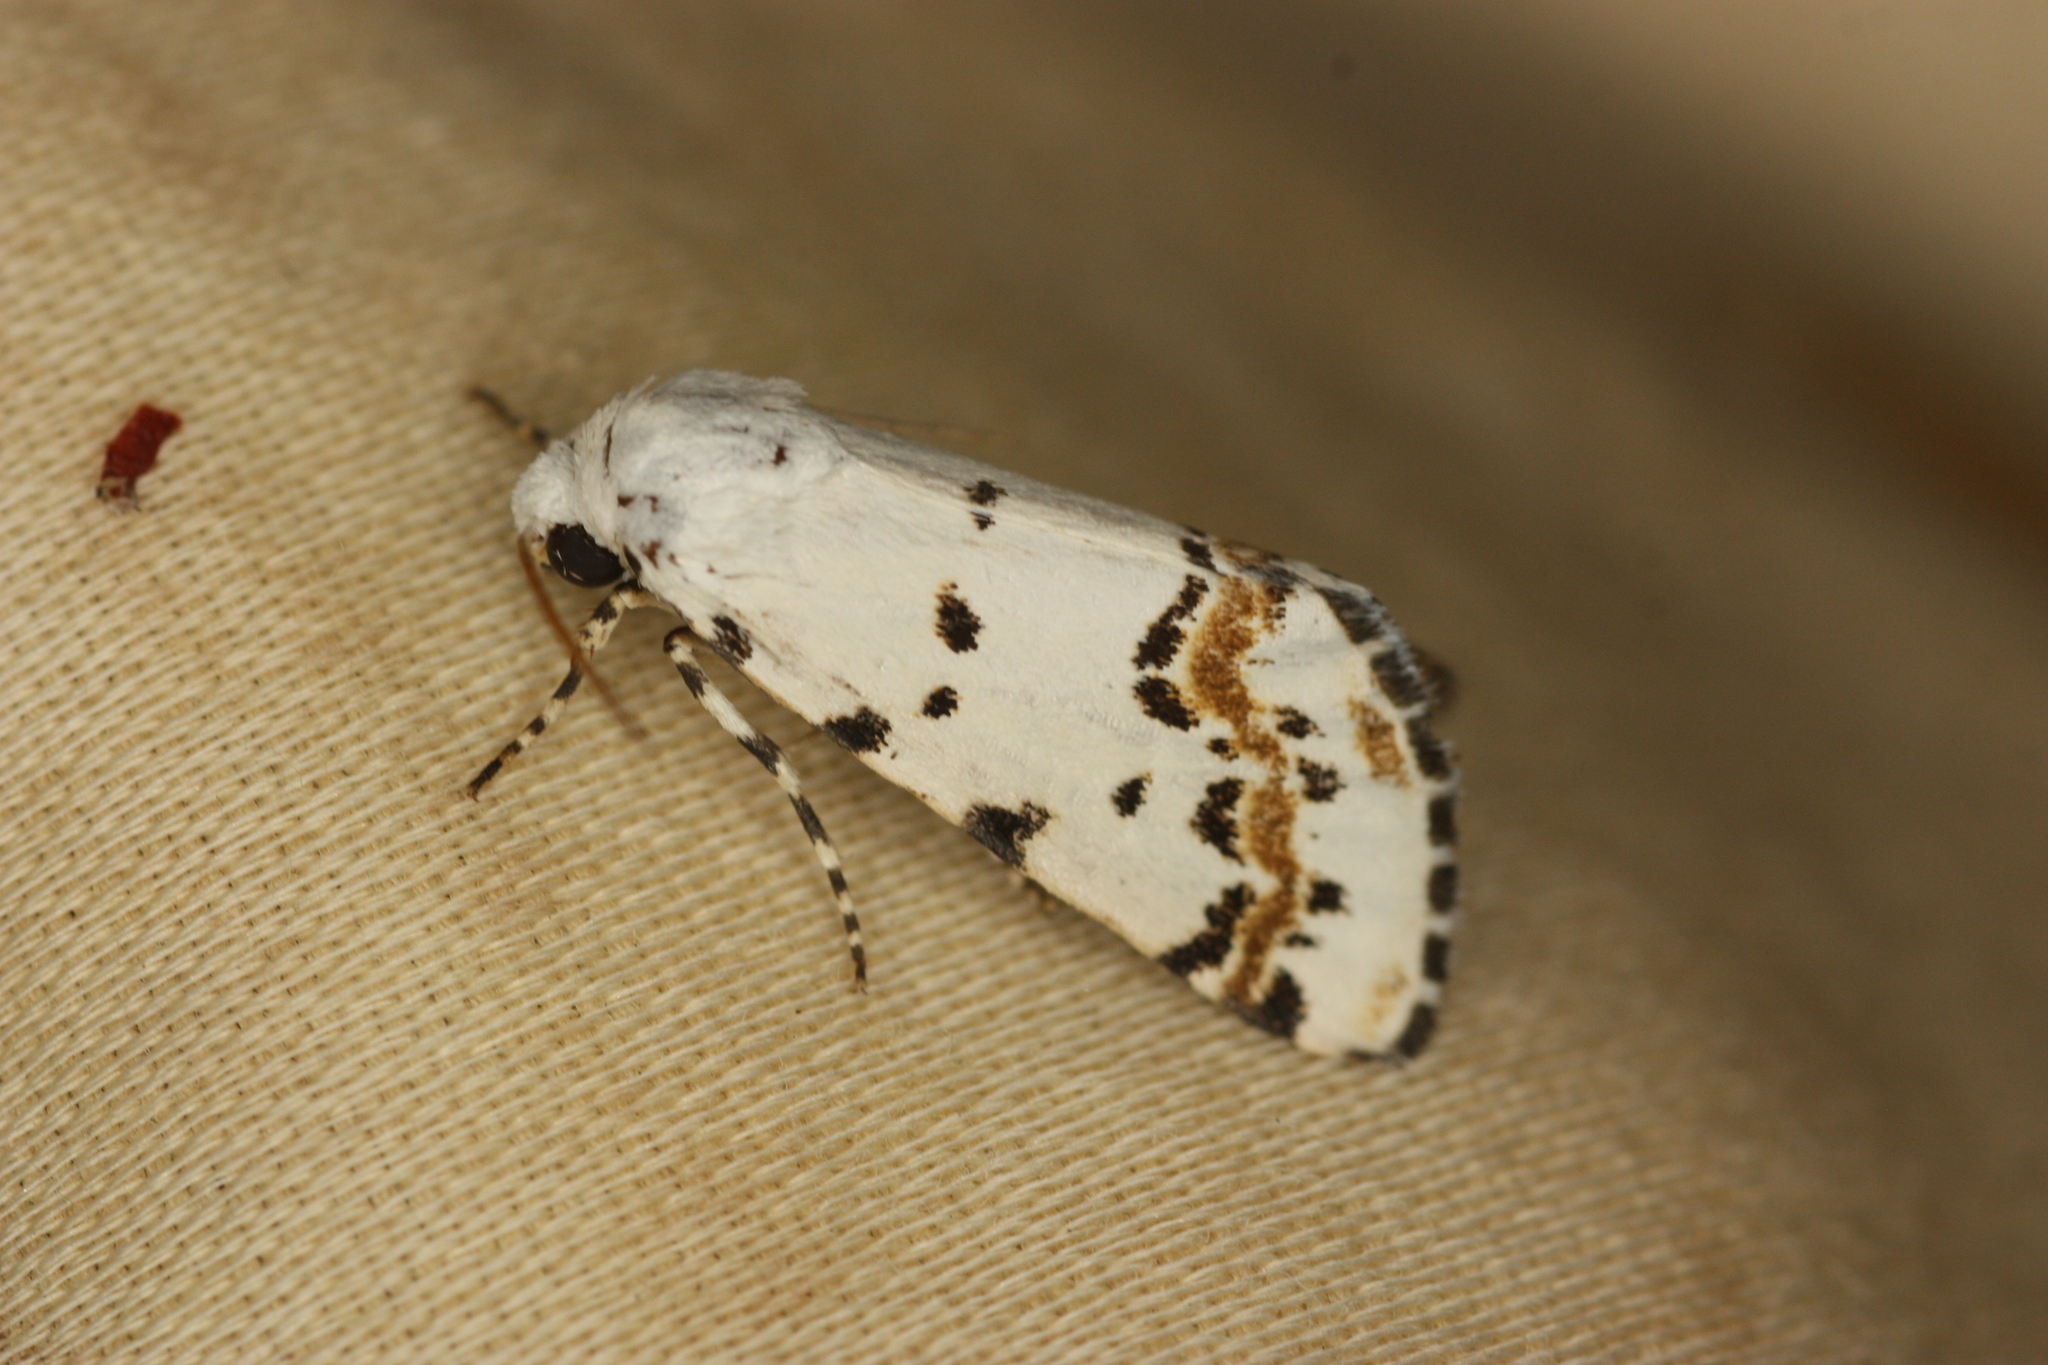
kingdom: Animalia
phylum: Arthropoda
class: Insecta
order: Lepidoptera
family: Noctuidae
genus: Grotella
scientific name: Grotella tricolor
